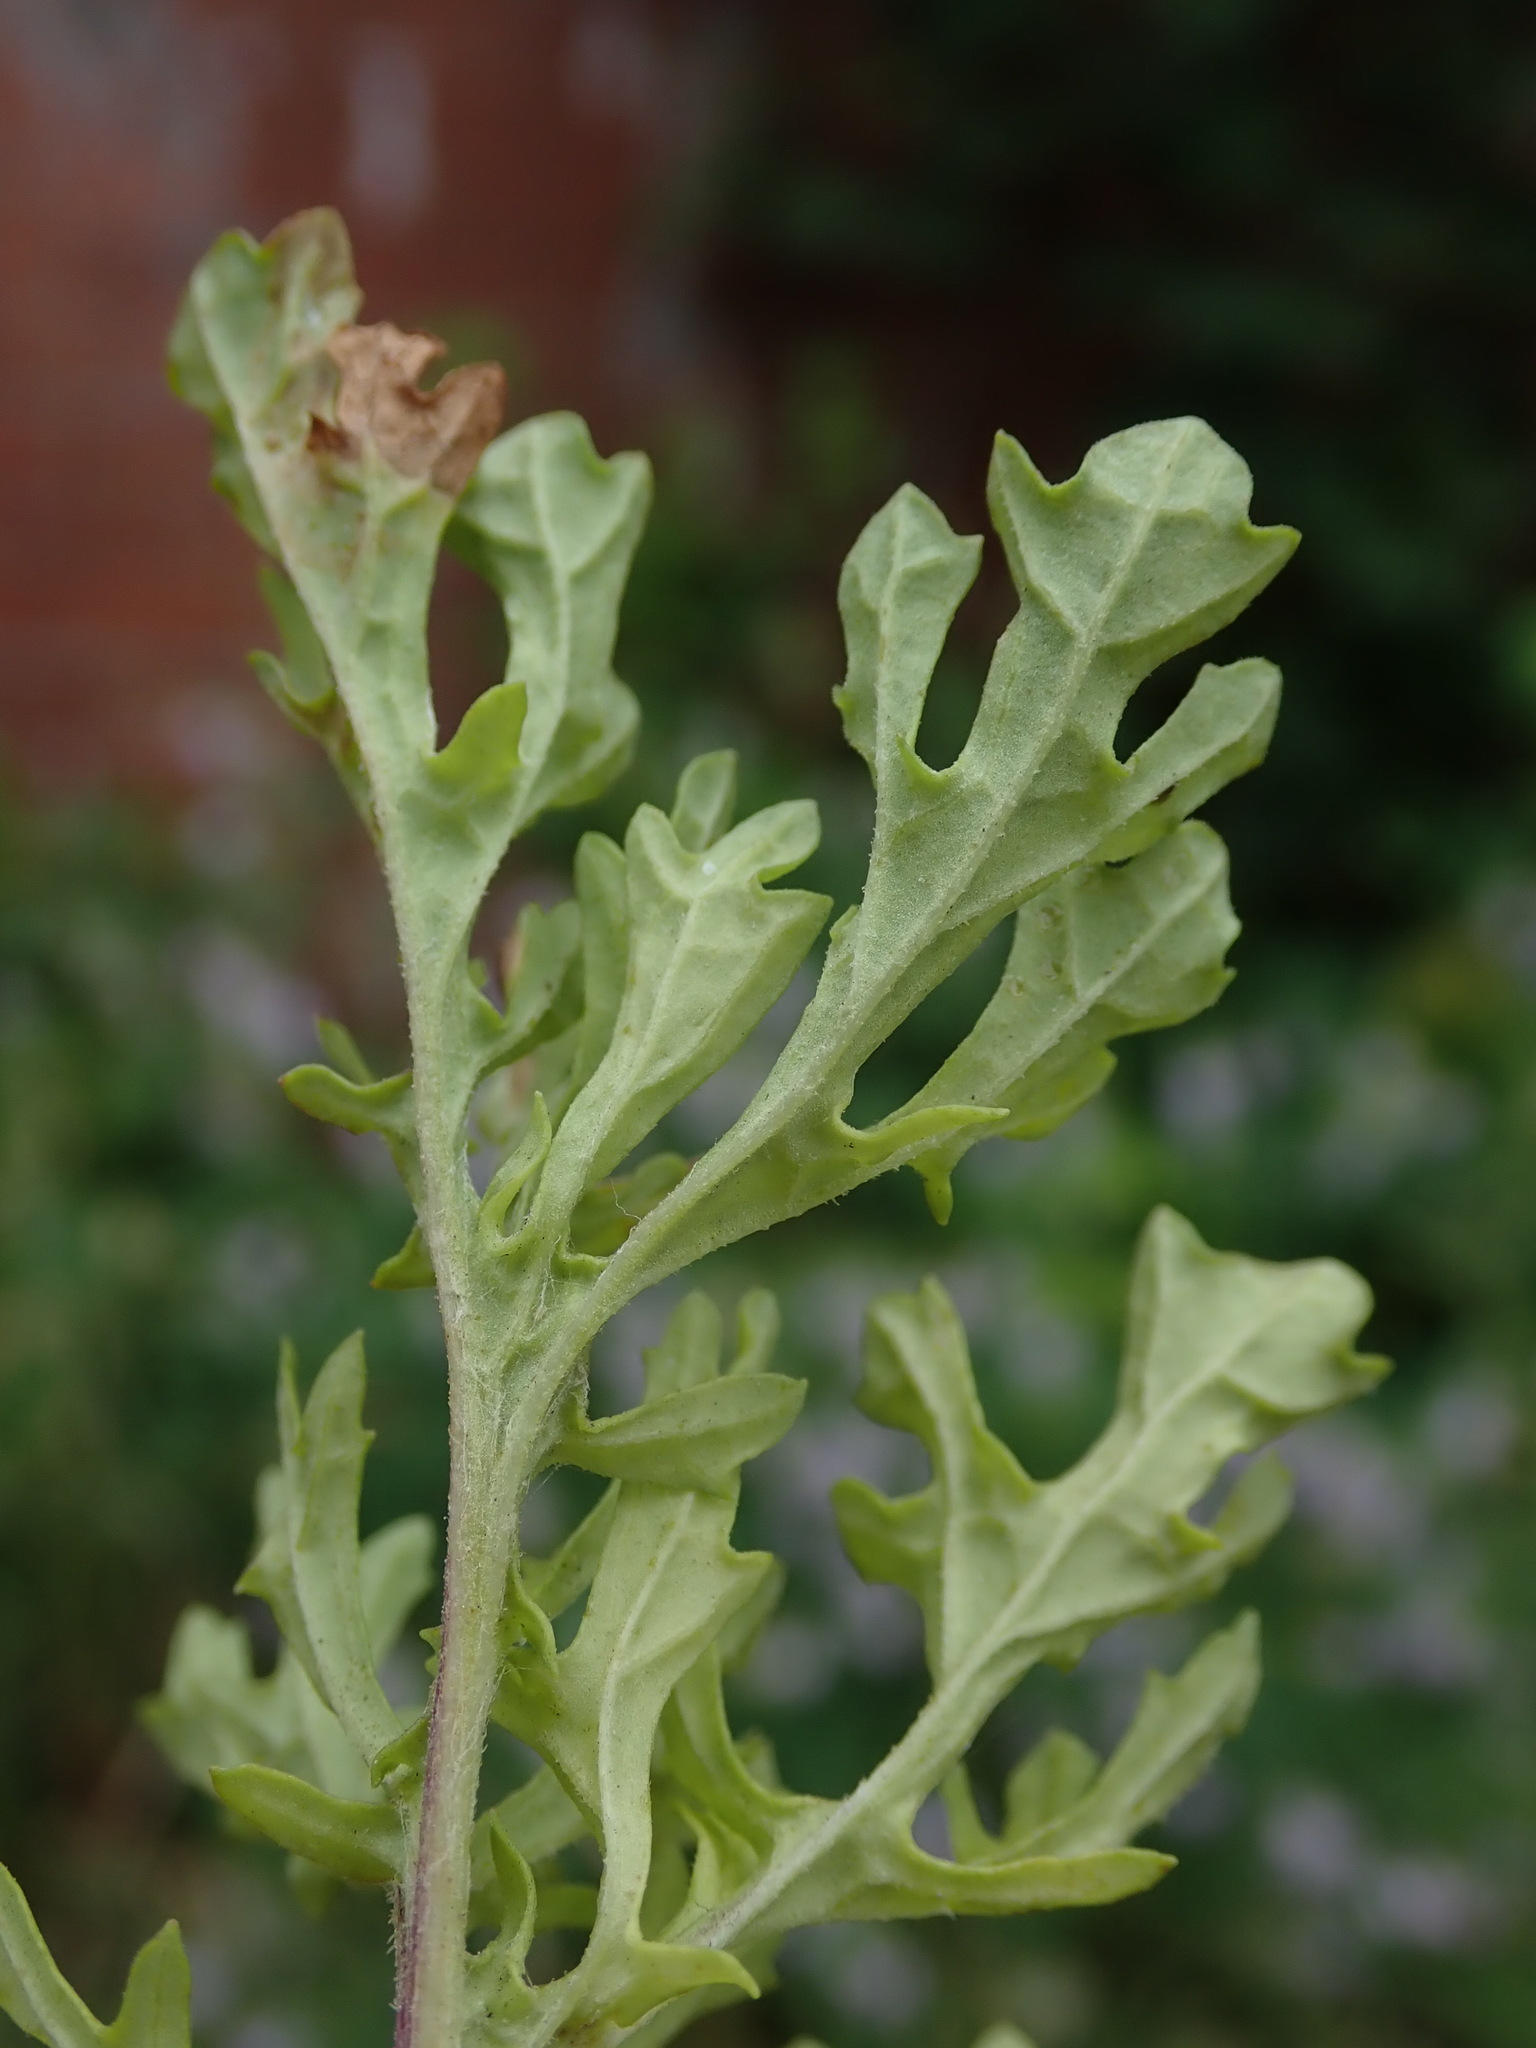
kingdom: Plantae
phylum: Tracheophyta
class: Magnoliopsida
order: Asterales
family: Asteraceae
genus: Jacobaea
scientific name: Jacobaea vulgaris
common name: Stinking willie
